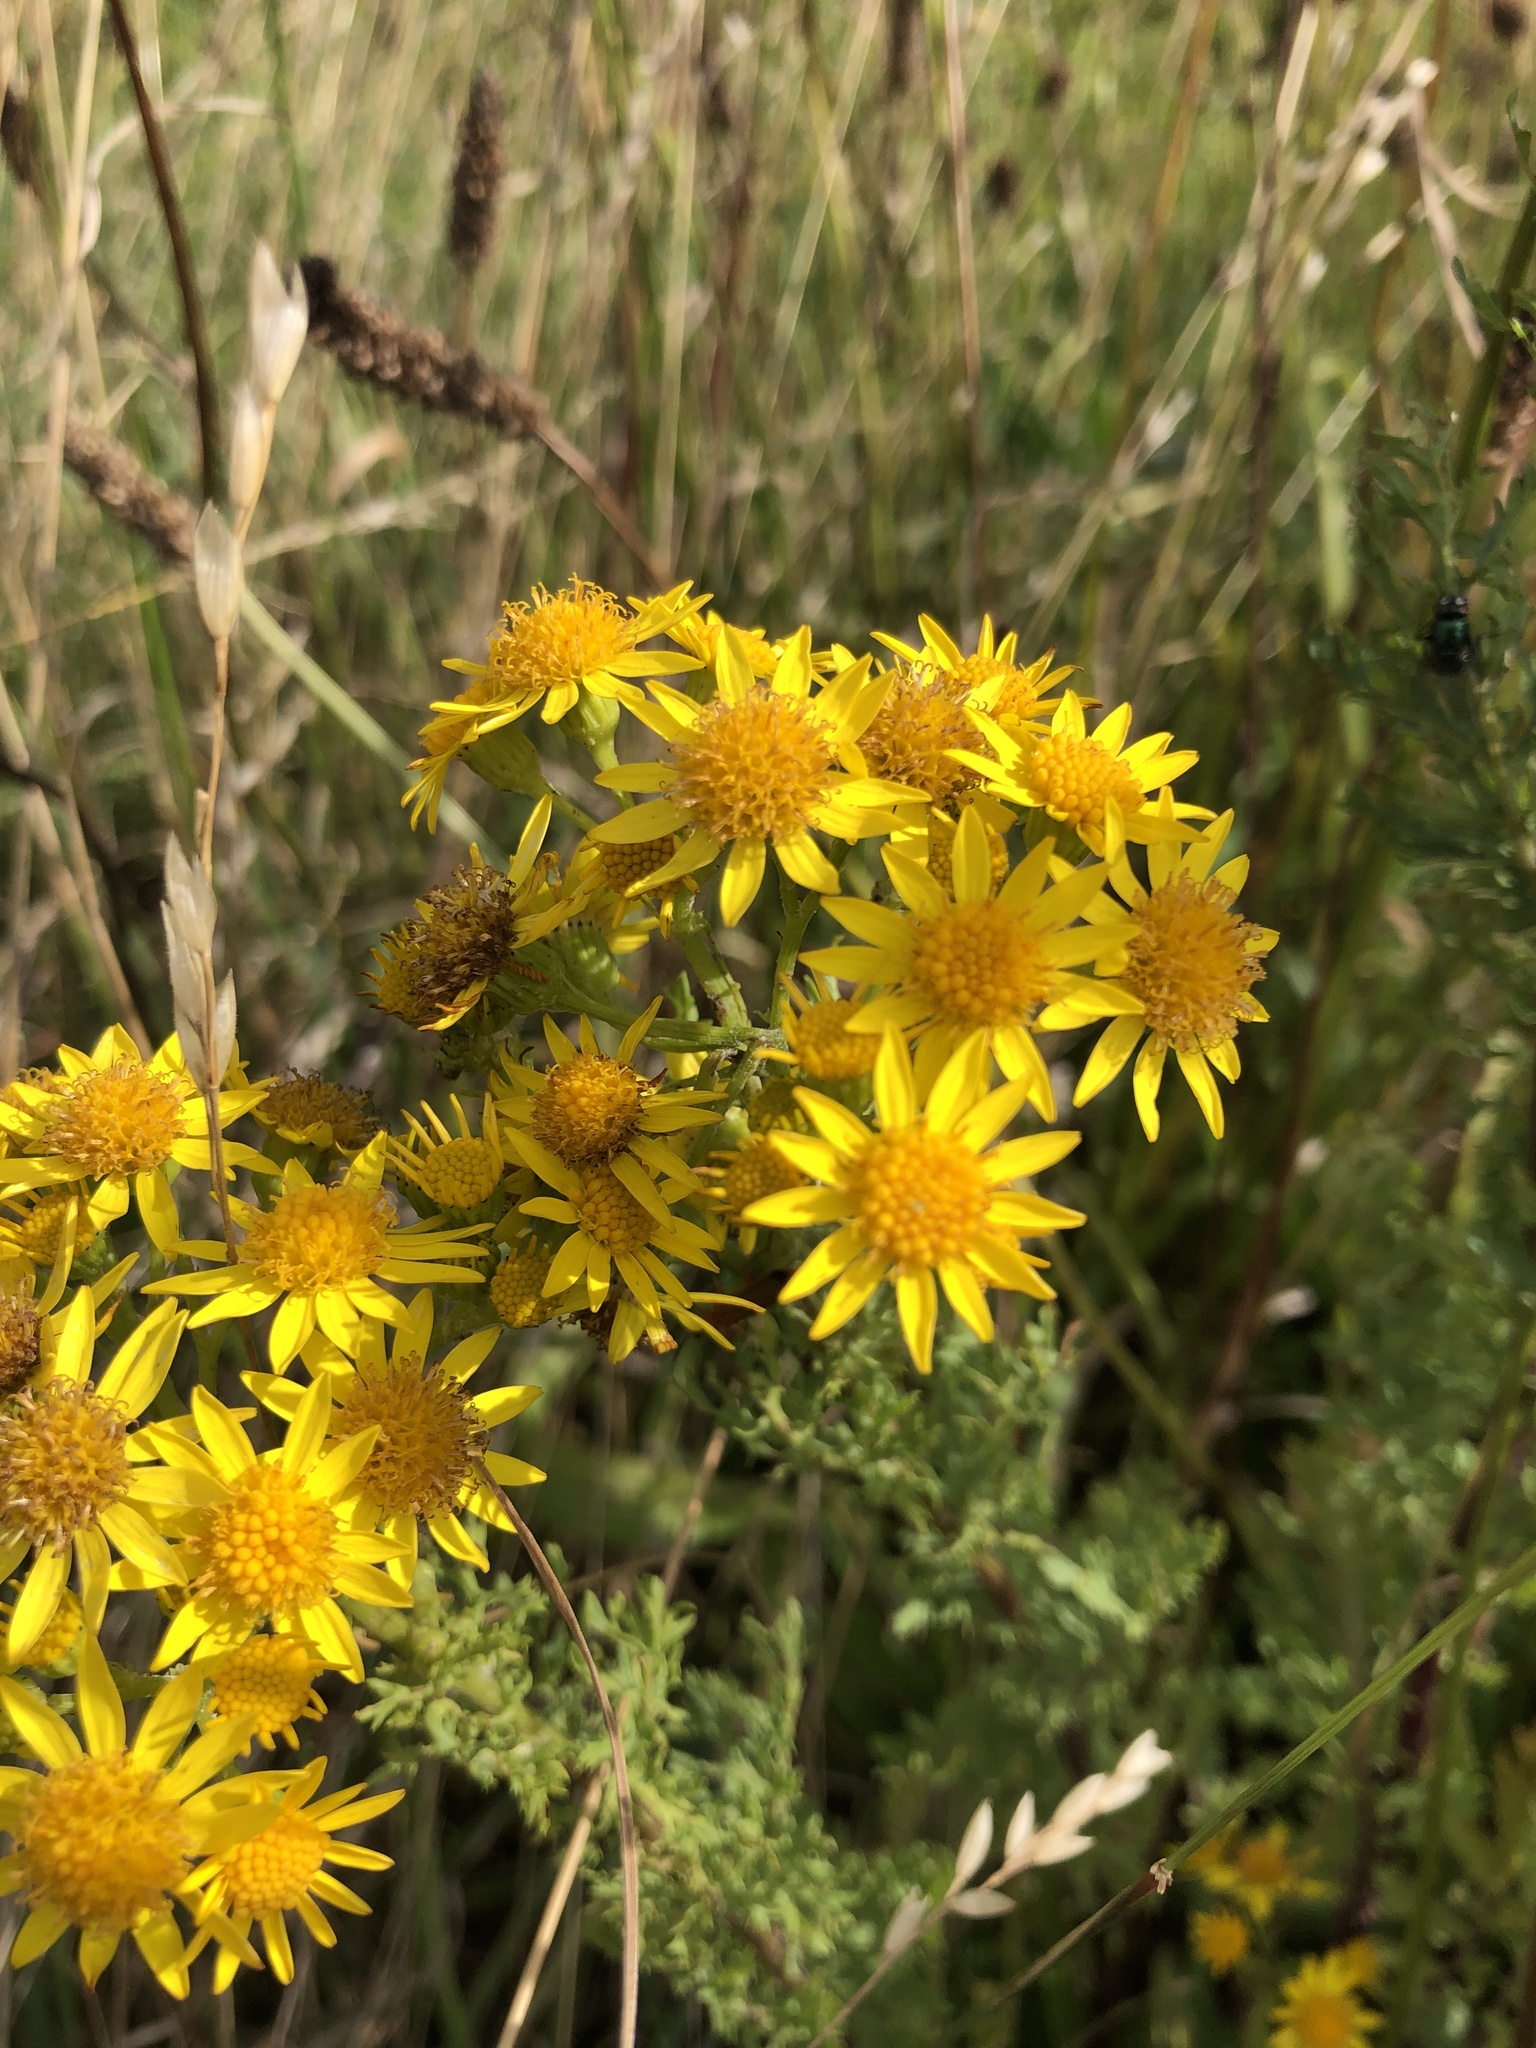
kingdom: Plantae
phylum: Tracheophyta
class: Magnoliopsida
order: Asterales
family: Asteraceae
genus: Jacobaea
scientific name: Jacobaea vulgaris
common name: Stinking willie
